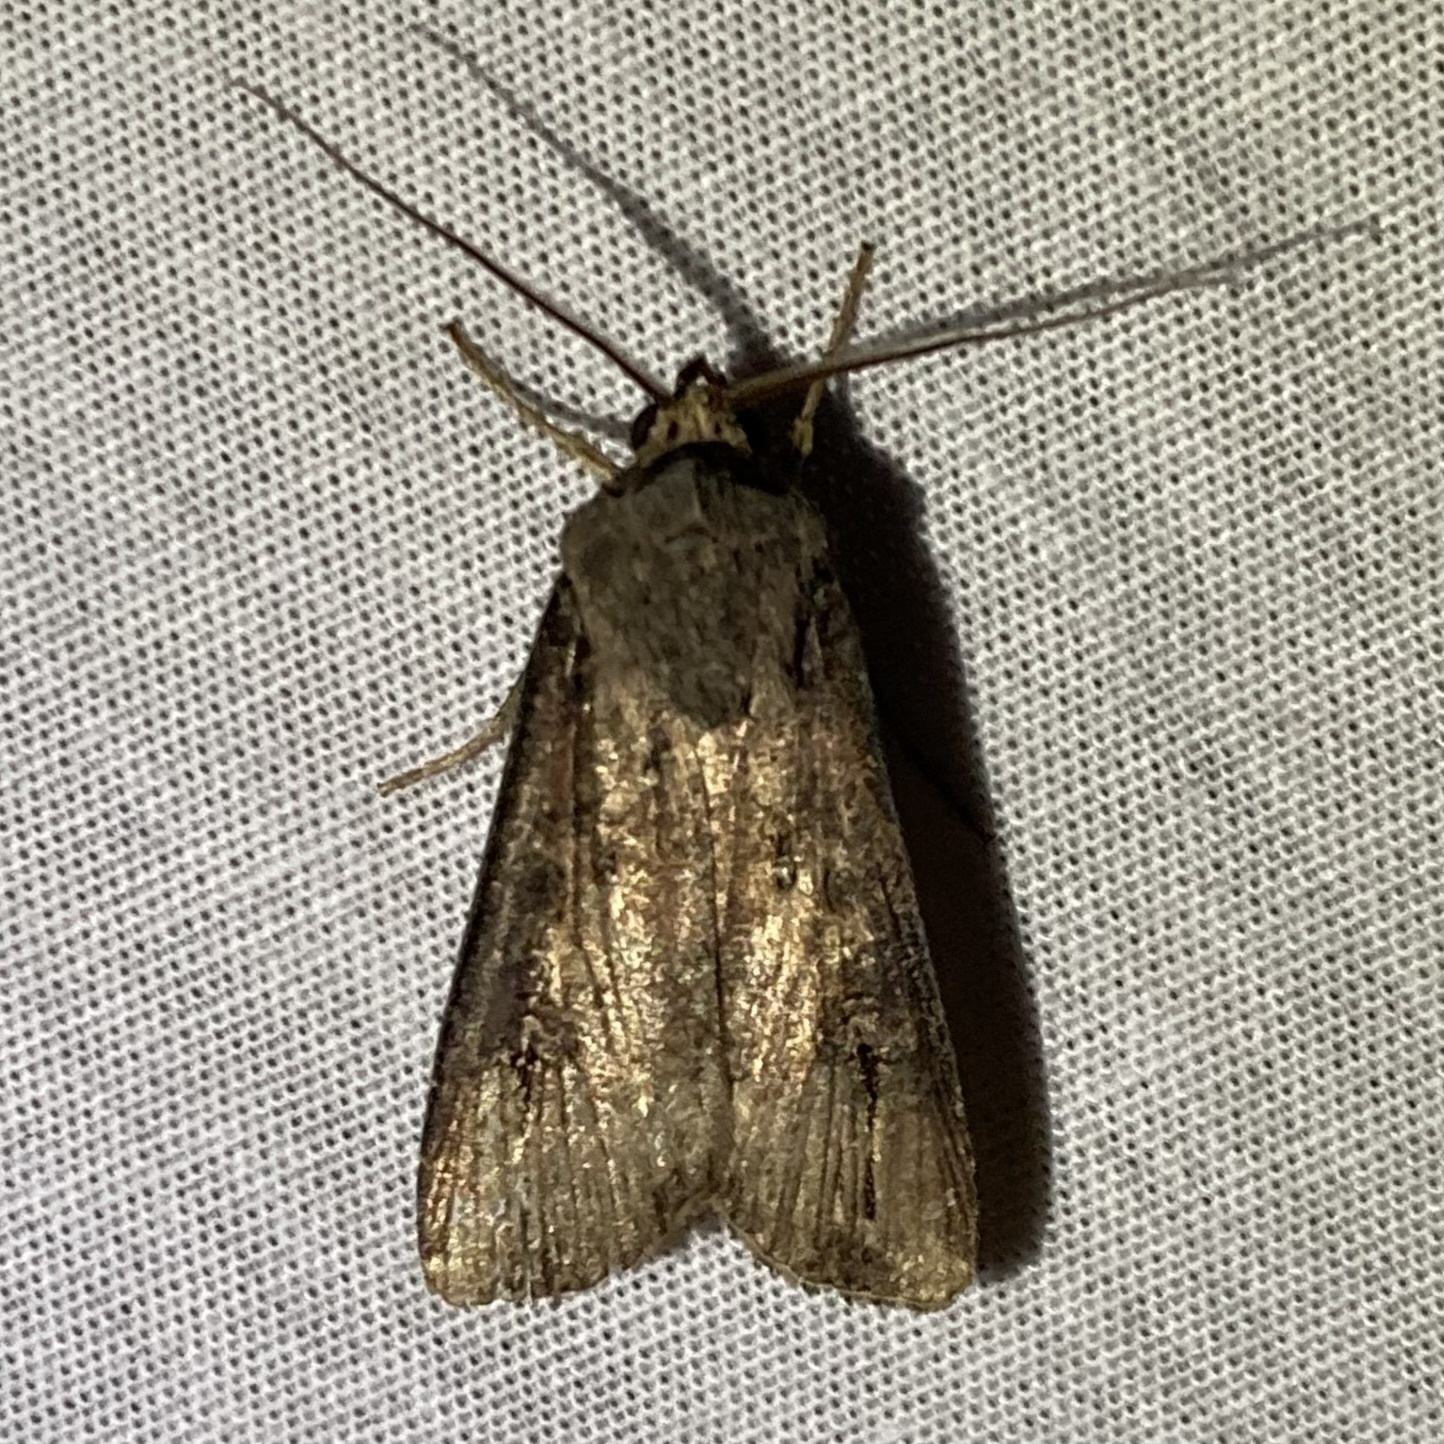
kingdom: Animalia
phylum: Arthropoda
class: Insecta
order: Lepidoptera
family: Noctuidae
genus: Agrotis
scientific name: Agrotis ipsilon
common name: Dark sword-grass
